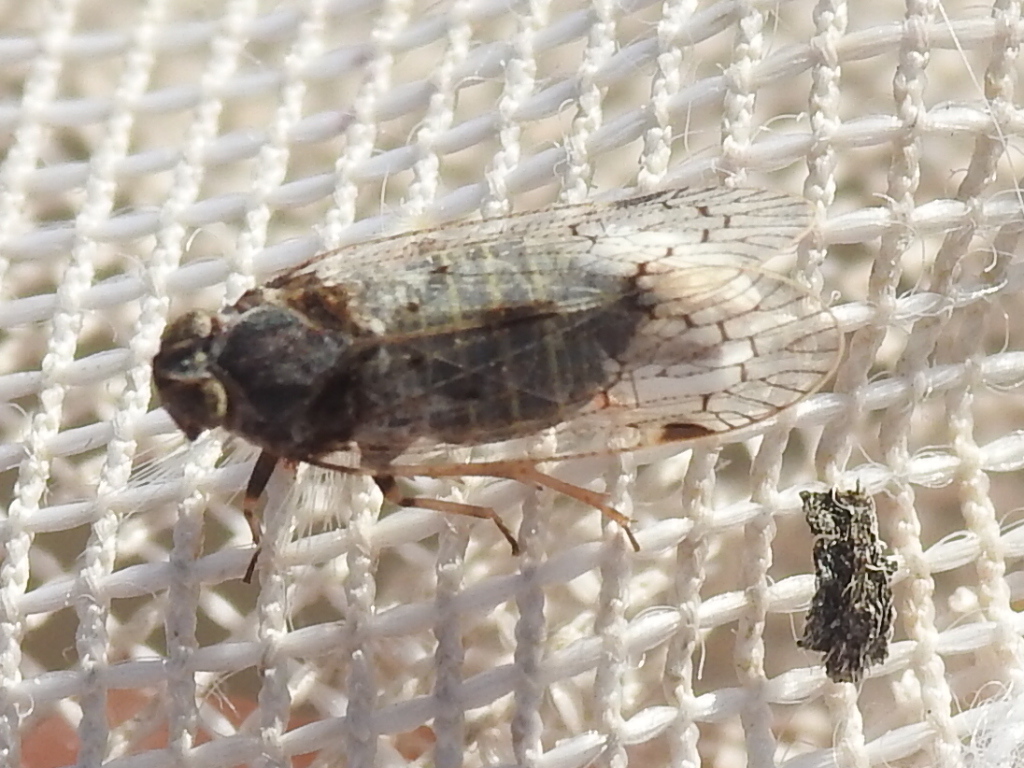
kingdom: Animalia
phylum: Arthropoda
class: Insecta
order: Hemiptera
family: Cixiidae
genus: Melanoliarus
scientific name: Melanoliarus aridus
